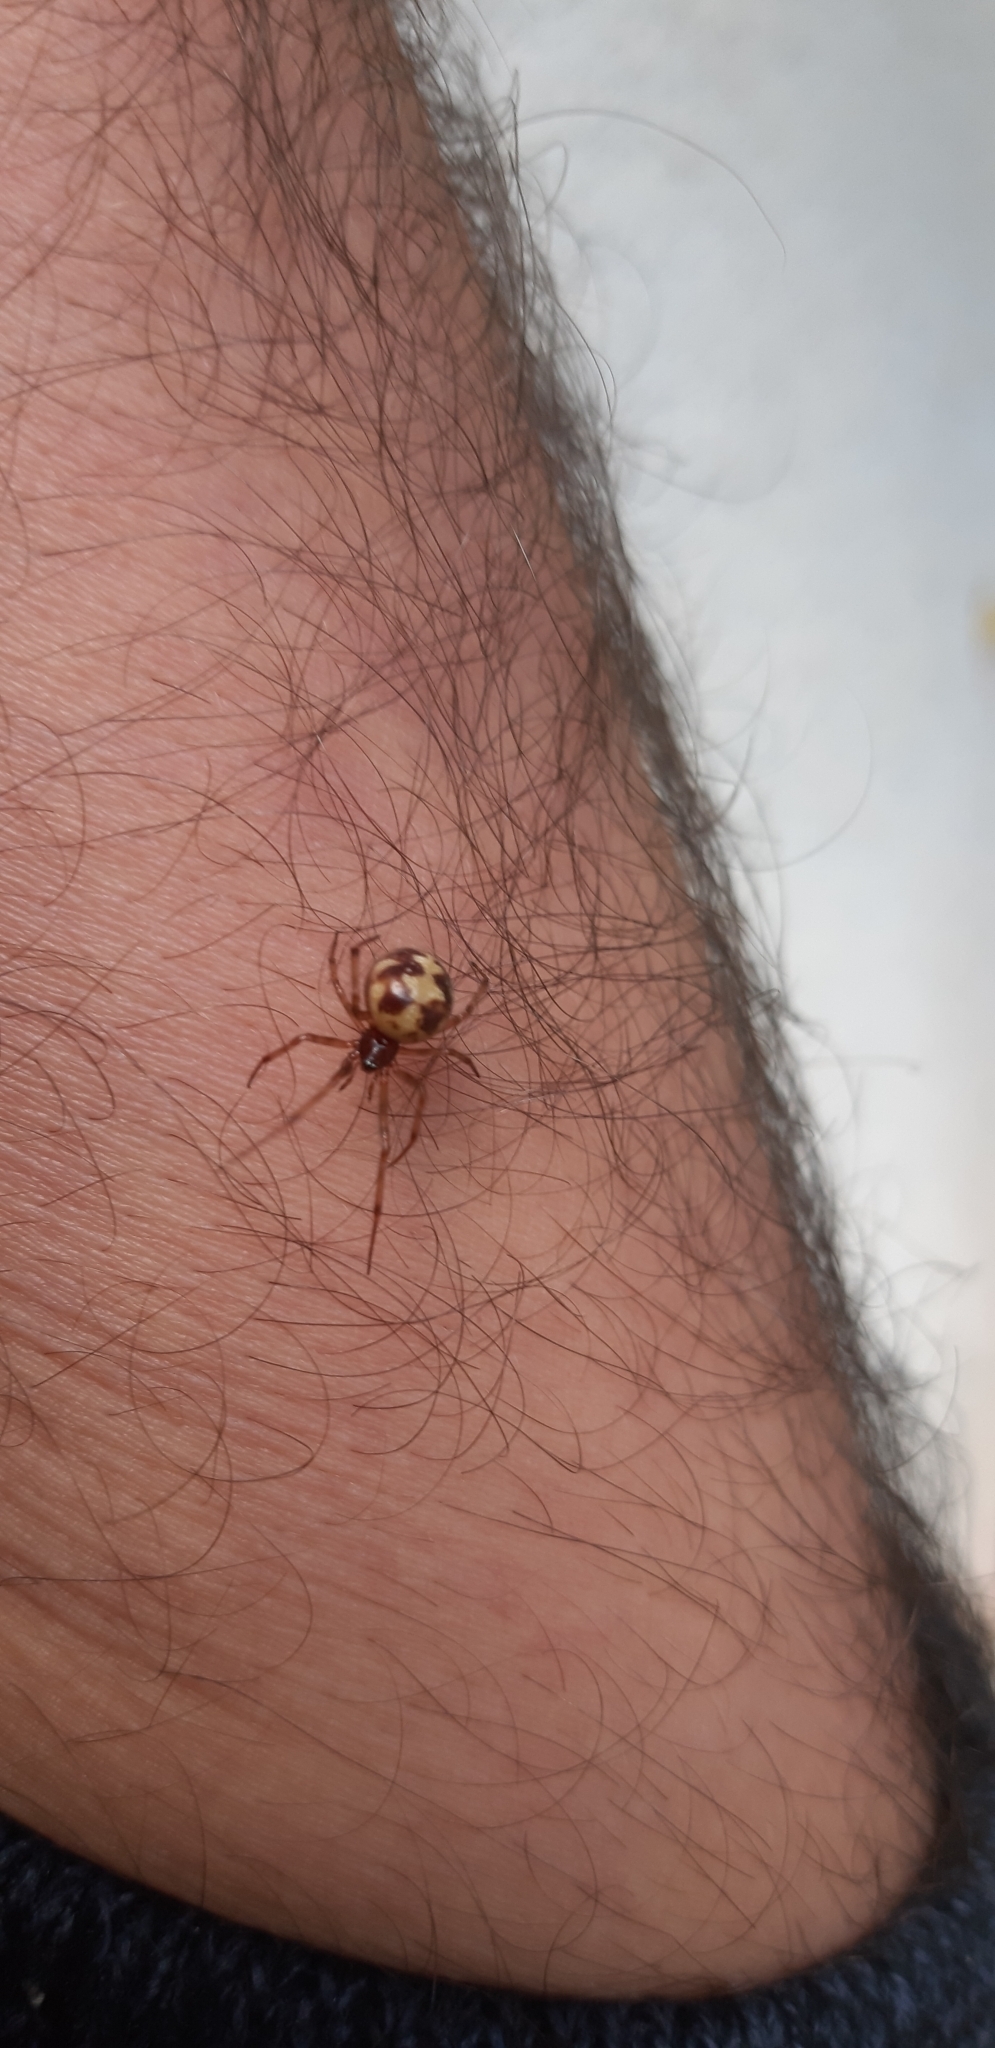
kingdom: Animalia
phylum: Arthropoda
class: Arachnida
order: Araneae
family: Theridiidae
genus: Steatoda
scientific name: Steatoda triangulosa
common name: Triangulate bud spider
